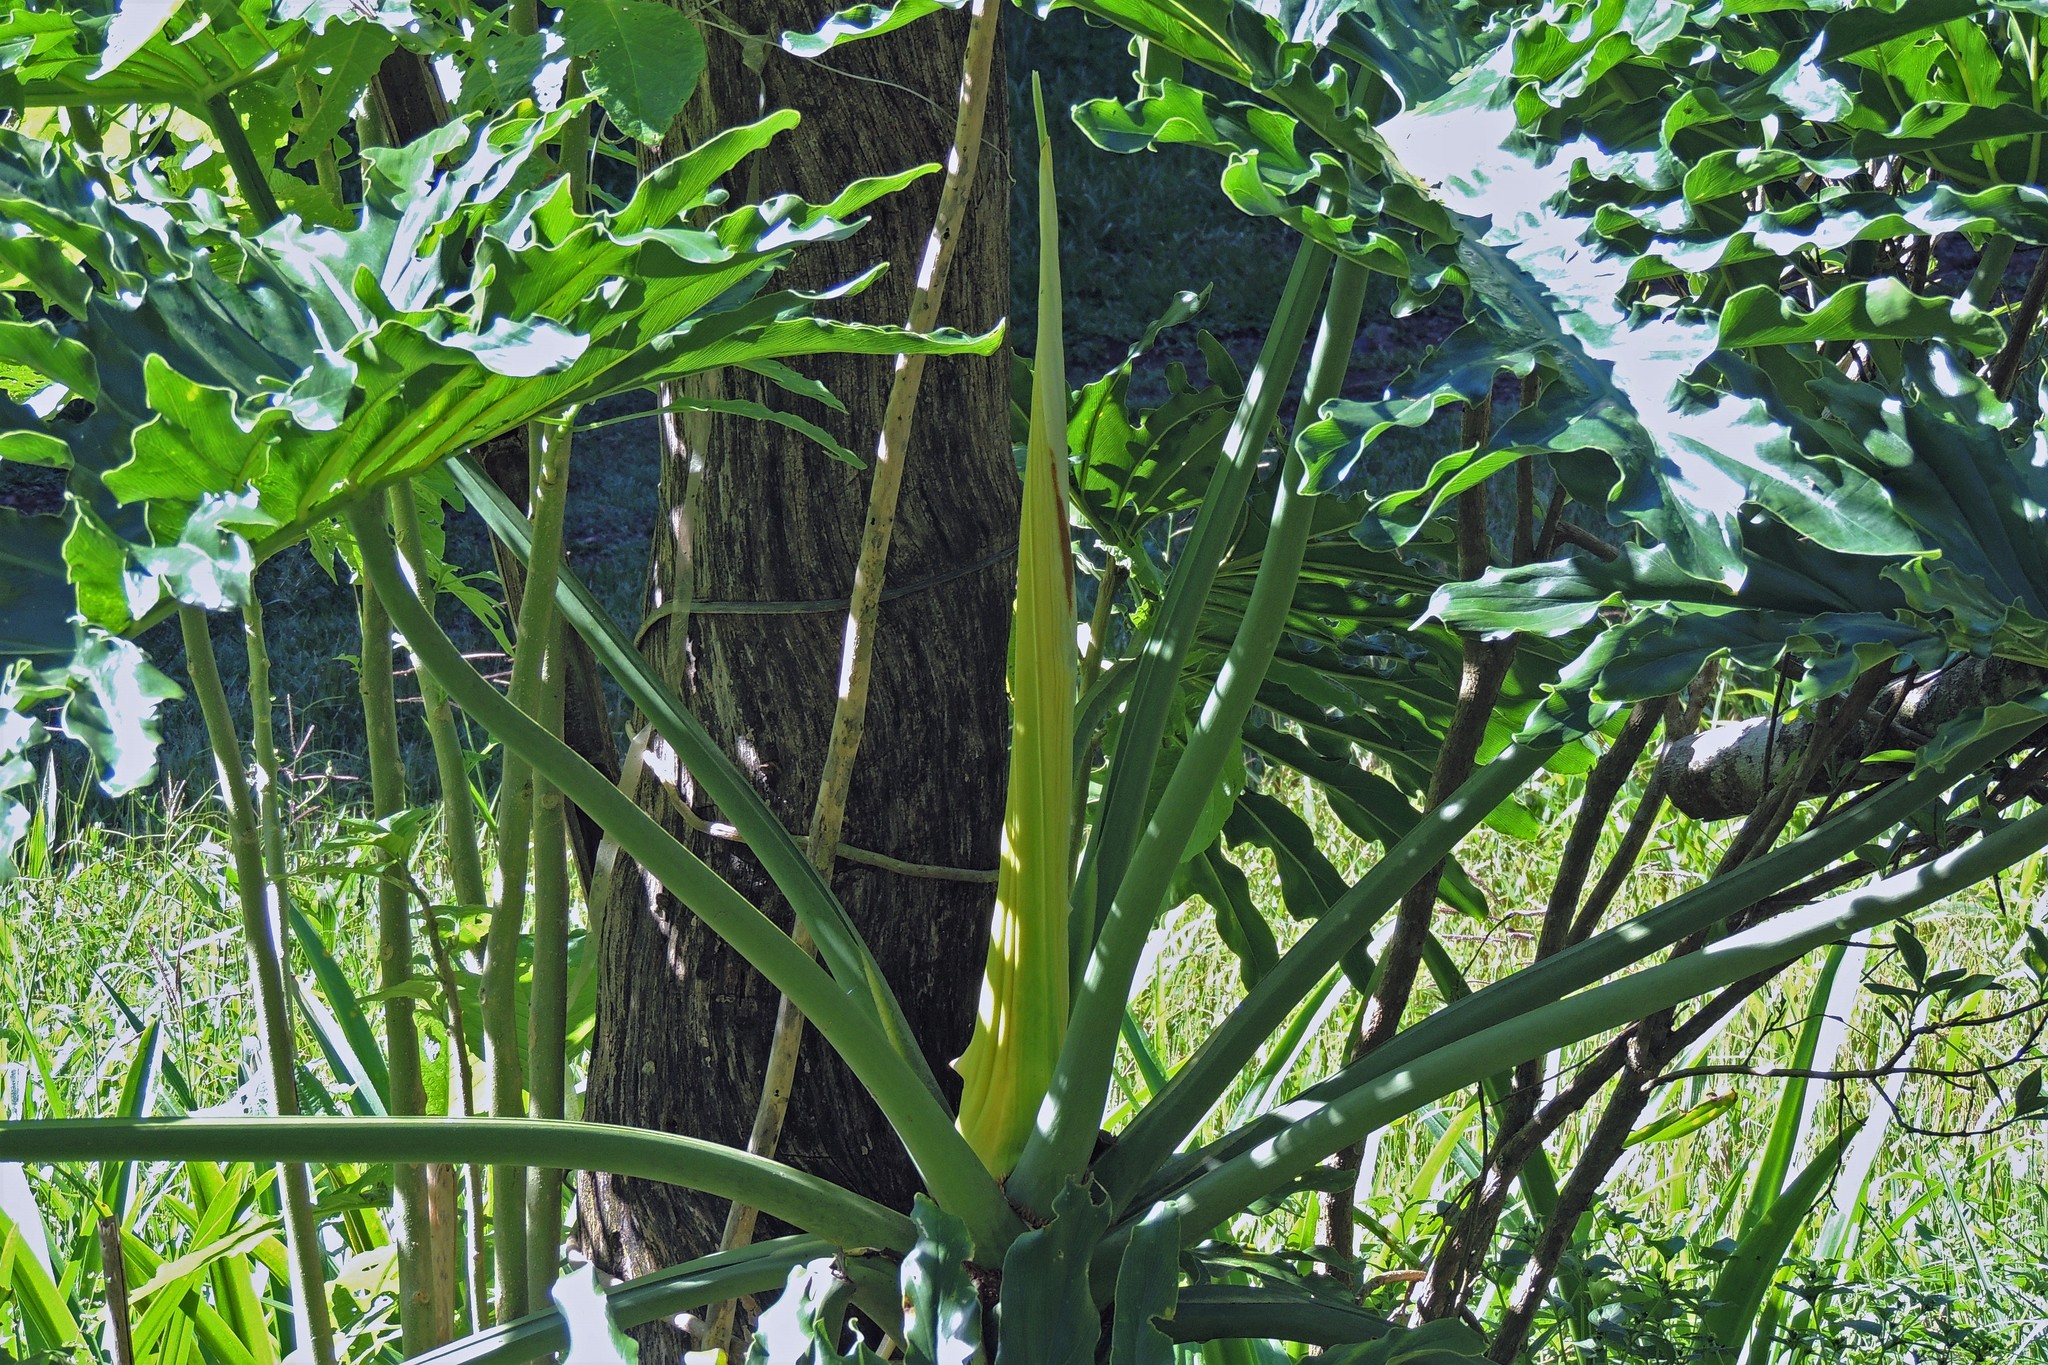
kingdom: Plantae
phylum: Tracheophyta
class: Liliopsida
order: Alismatales
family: Araceae
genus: Thaumatophyllum
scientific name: Thaumatophyllum bipinnatifidum
